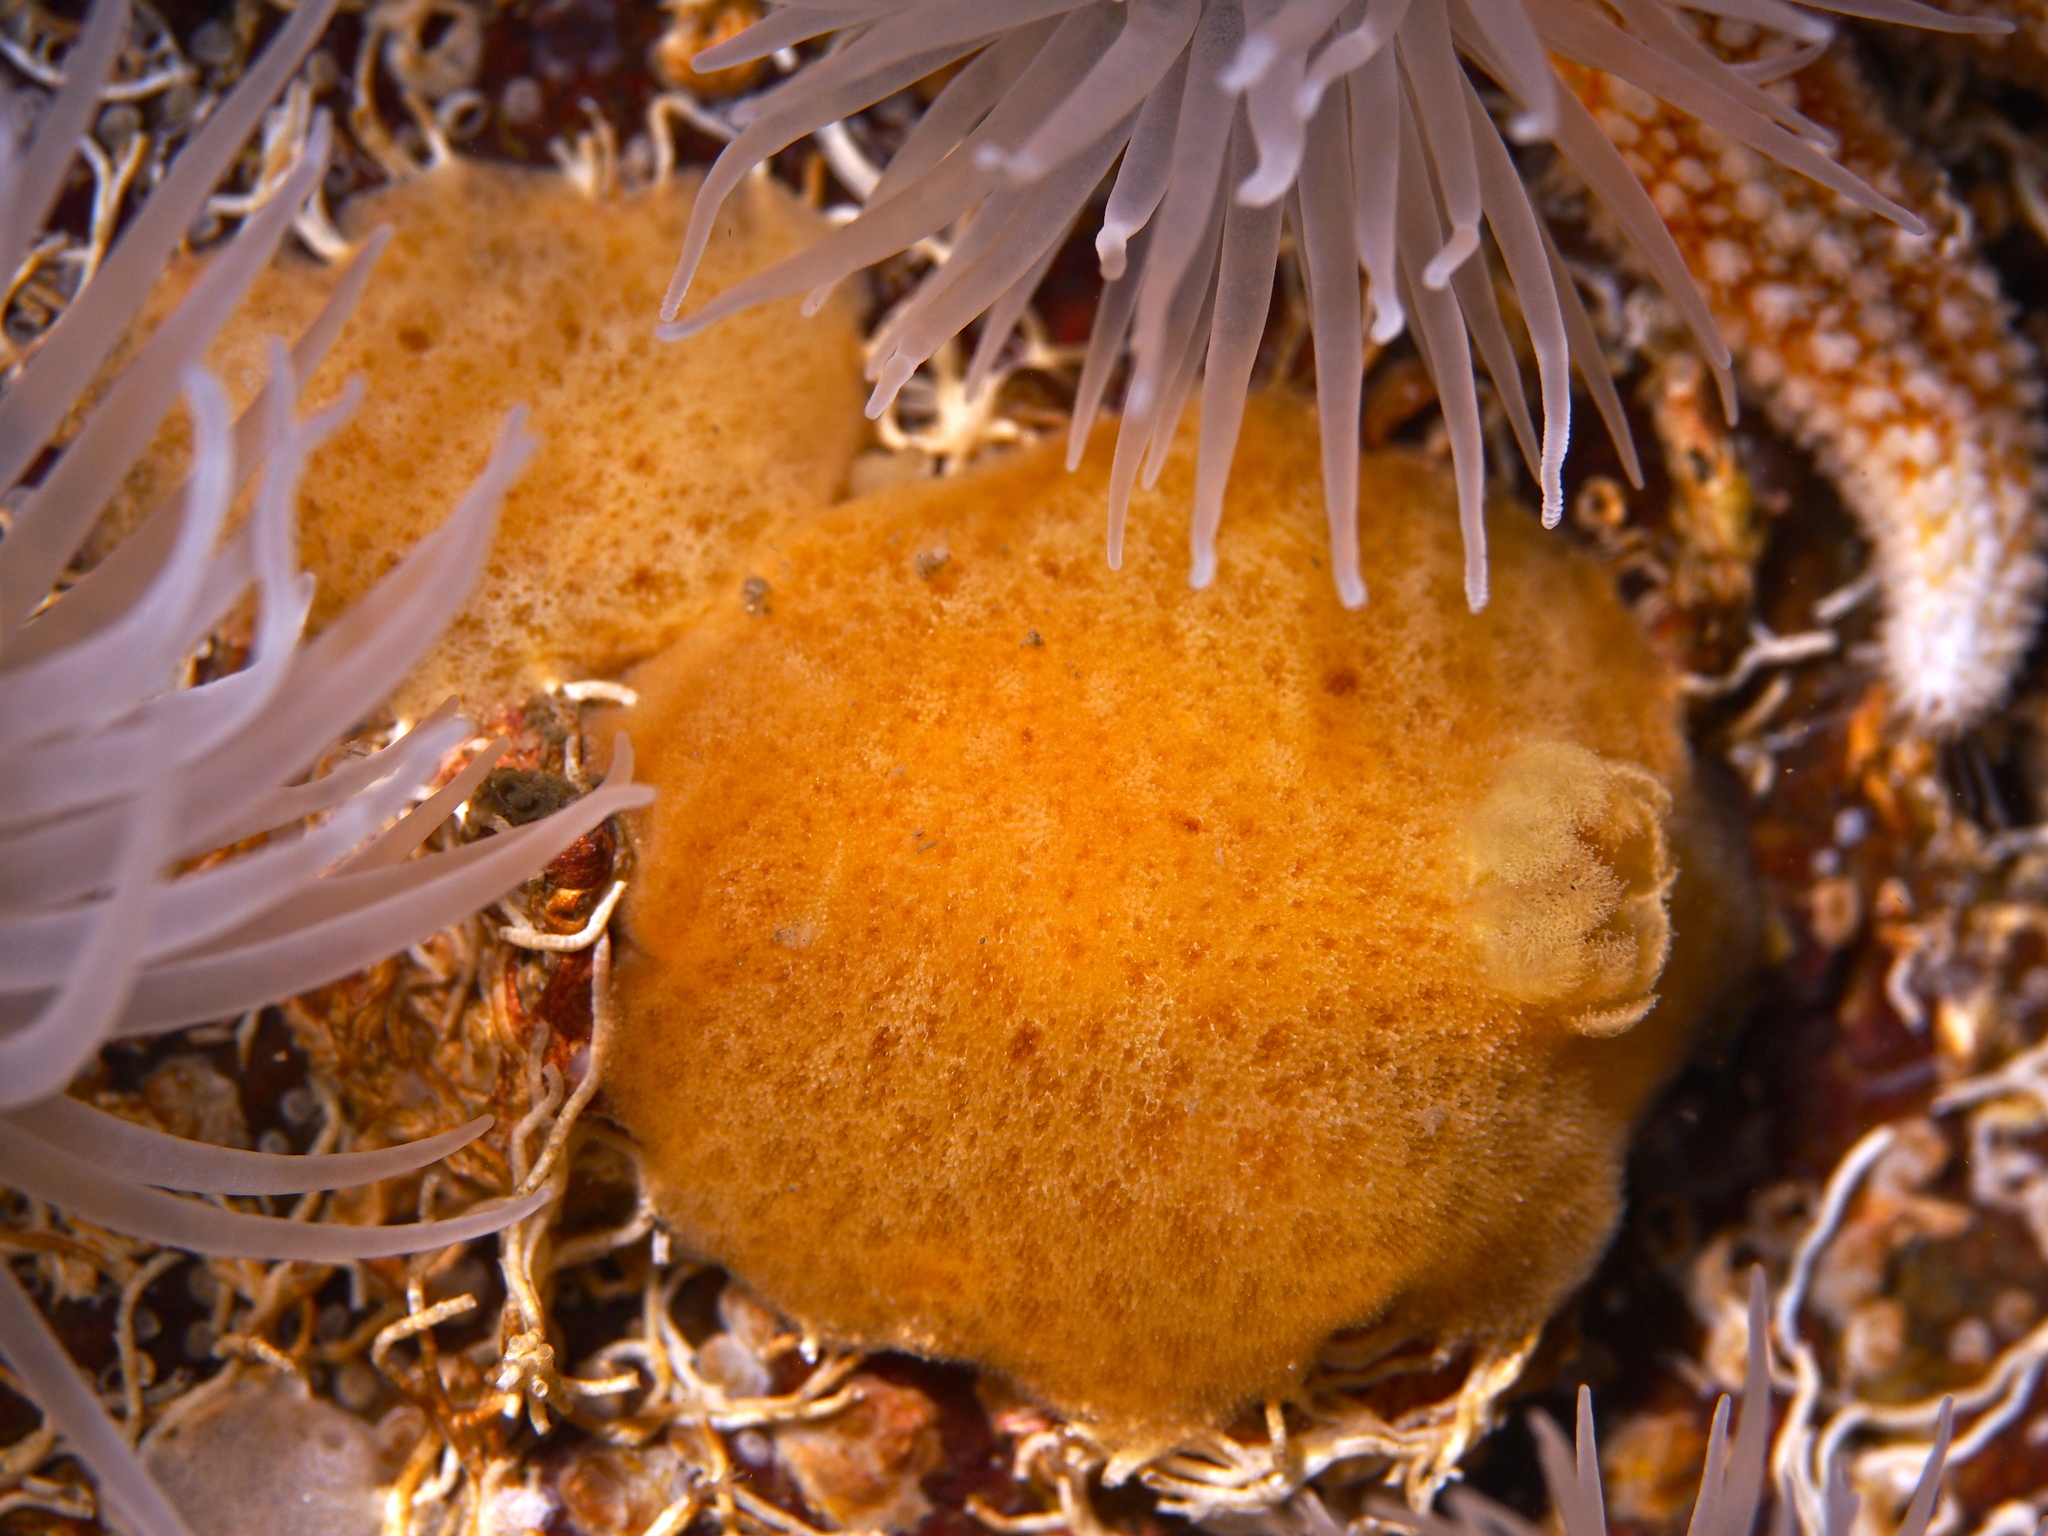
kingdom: Animalia
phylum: Mollusca
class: Gastropoda
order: Nudibranchia
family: Discodorididae
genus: Jorunna
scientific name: Jorunna tomentosa
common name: Grey sea slug
